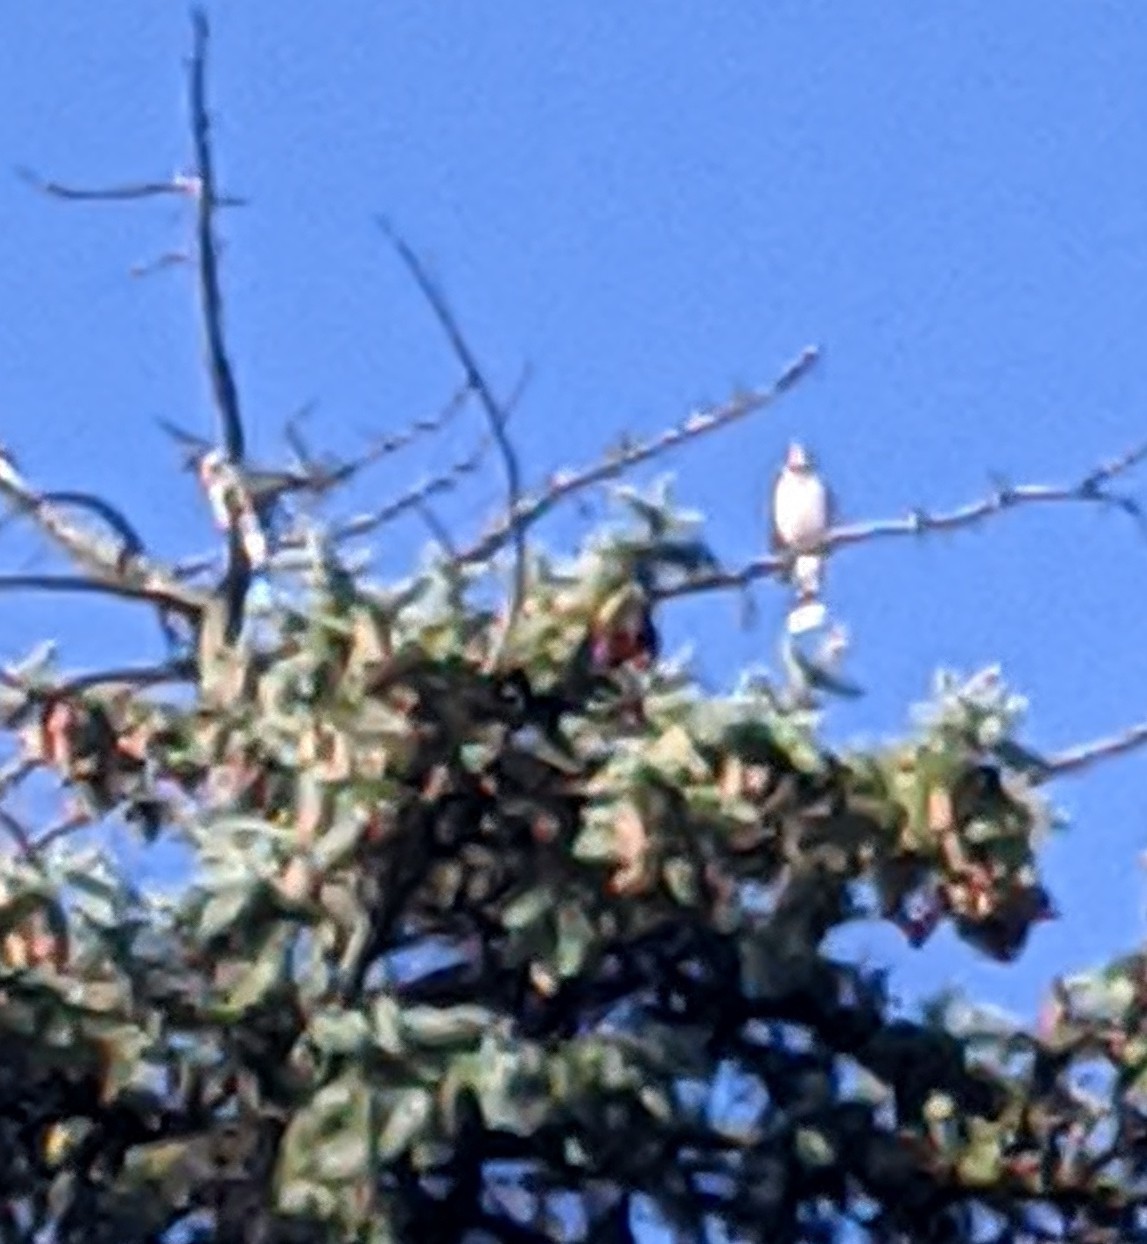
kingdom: Animalia
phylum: Chordata
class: Aves
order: Accipitriformes
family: Accipitridae
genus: Buteo
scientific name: Buteo platypterus
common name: Broad-winged hawk
